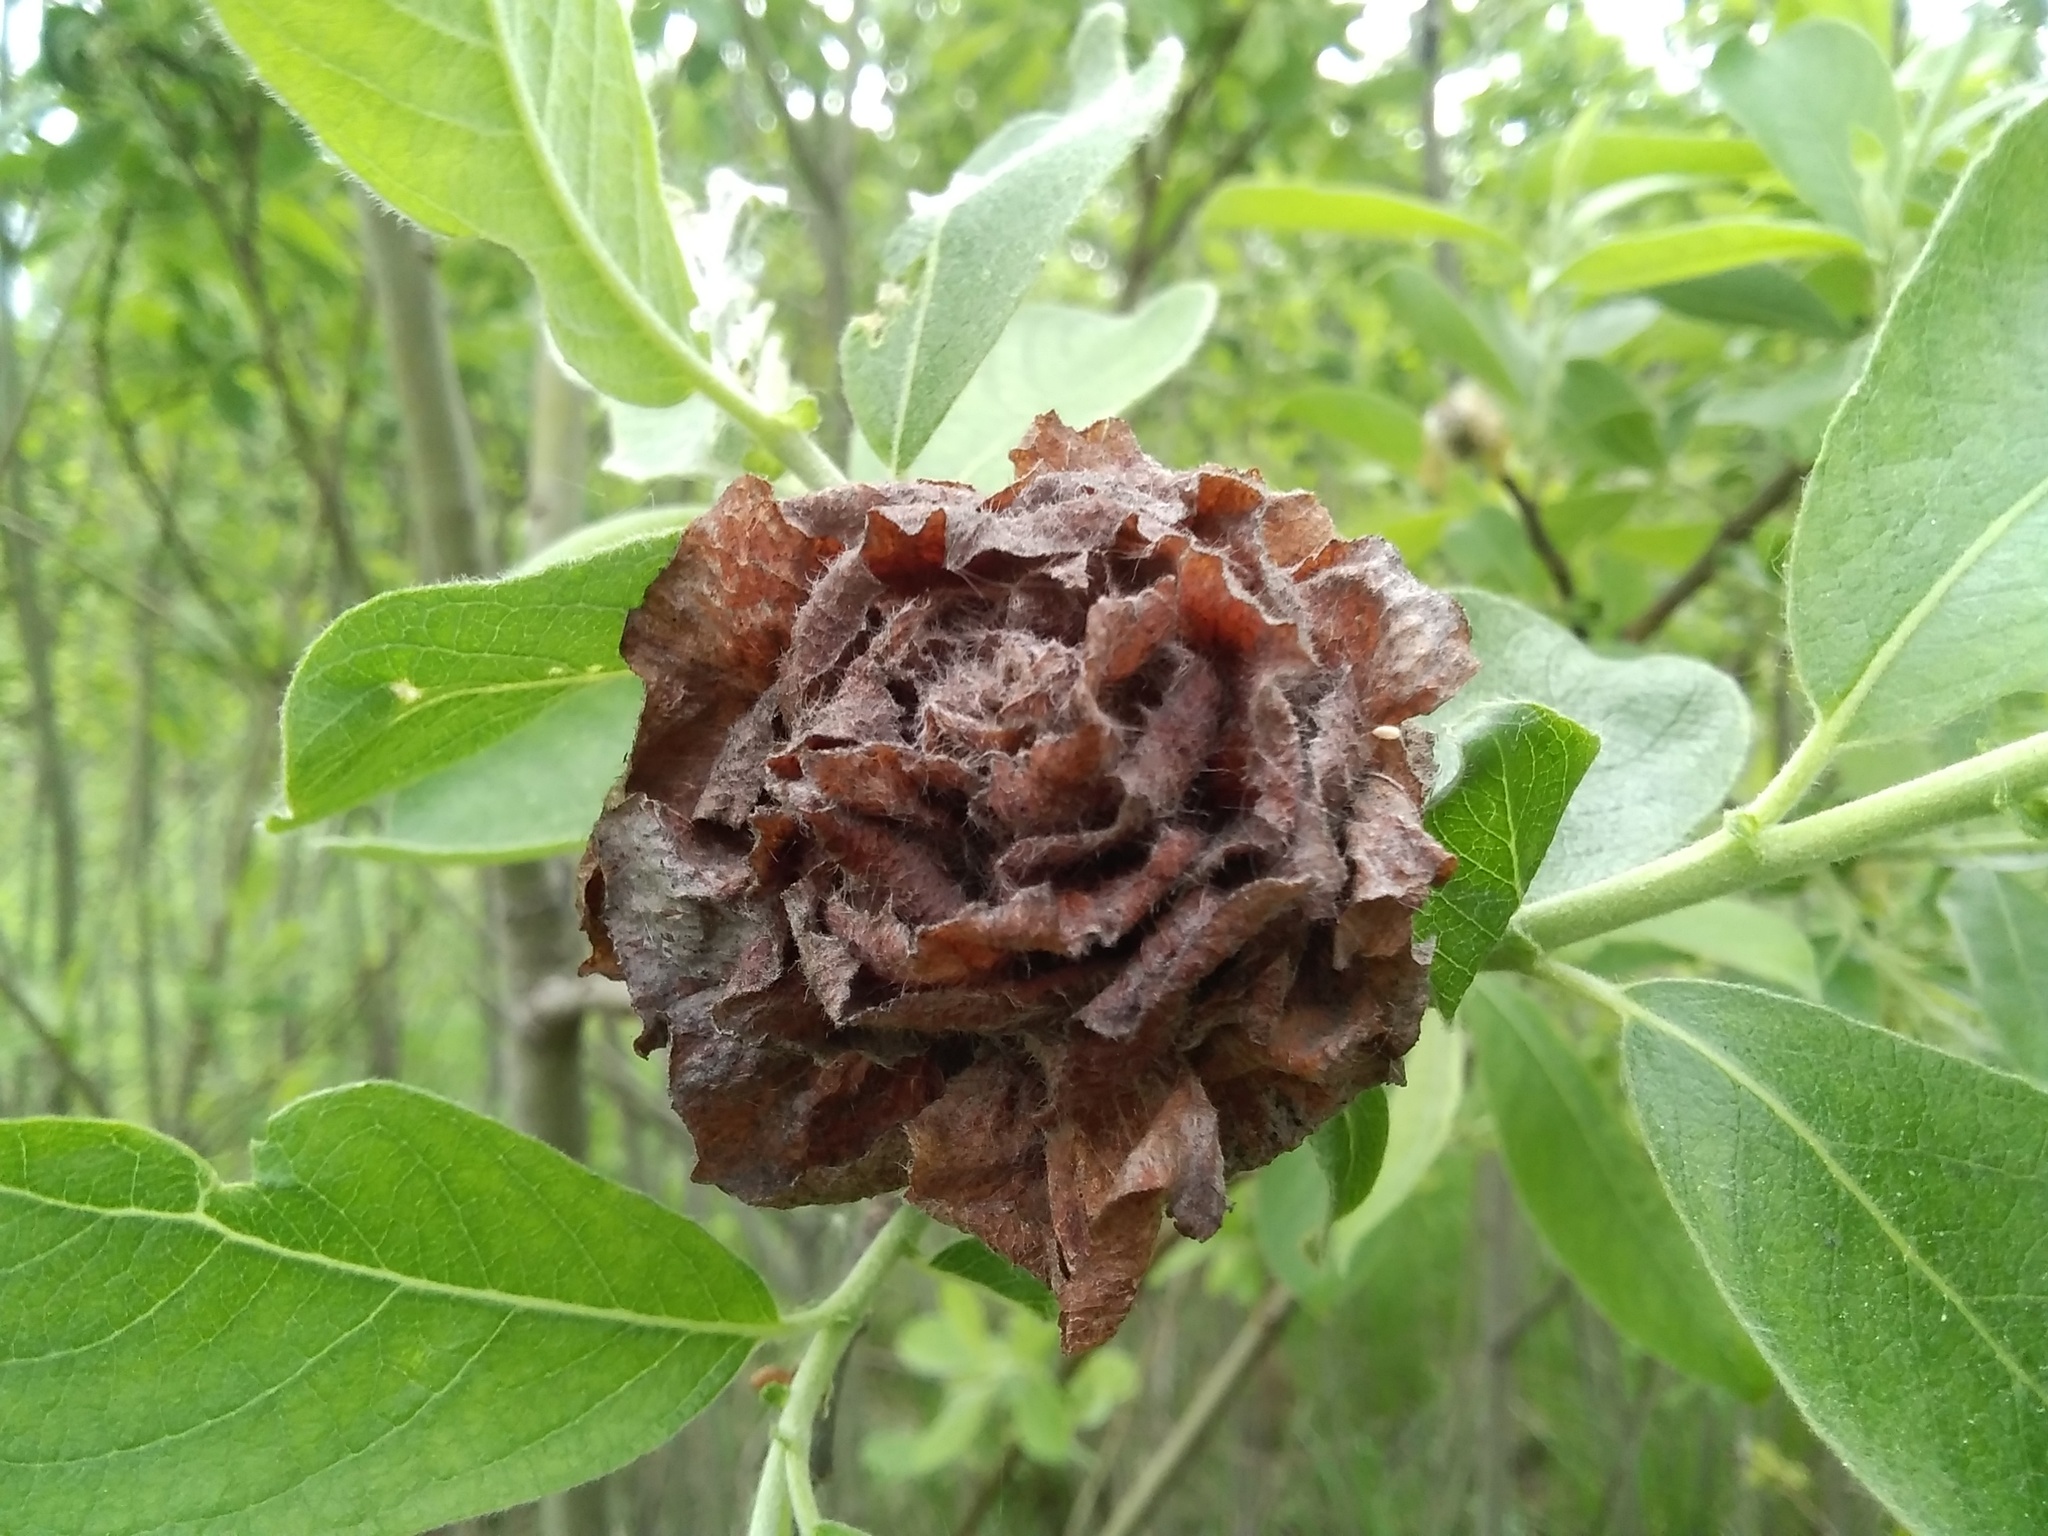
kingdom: Animalia
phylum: Arthropoda
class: Insecta
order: Diptera
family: Cecidomyiidae
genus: Rabdophaga
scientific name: Rabdophaga rosaria
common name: Willow rose gall midge
